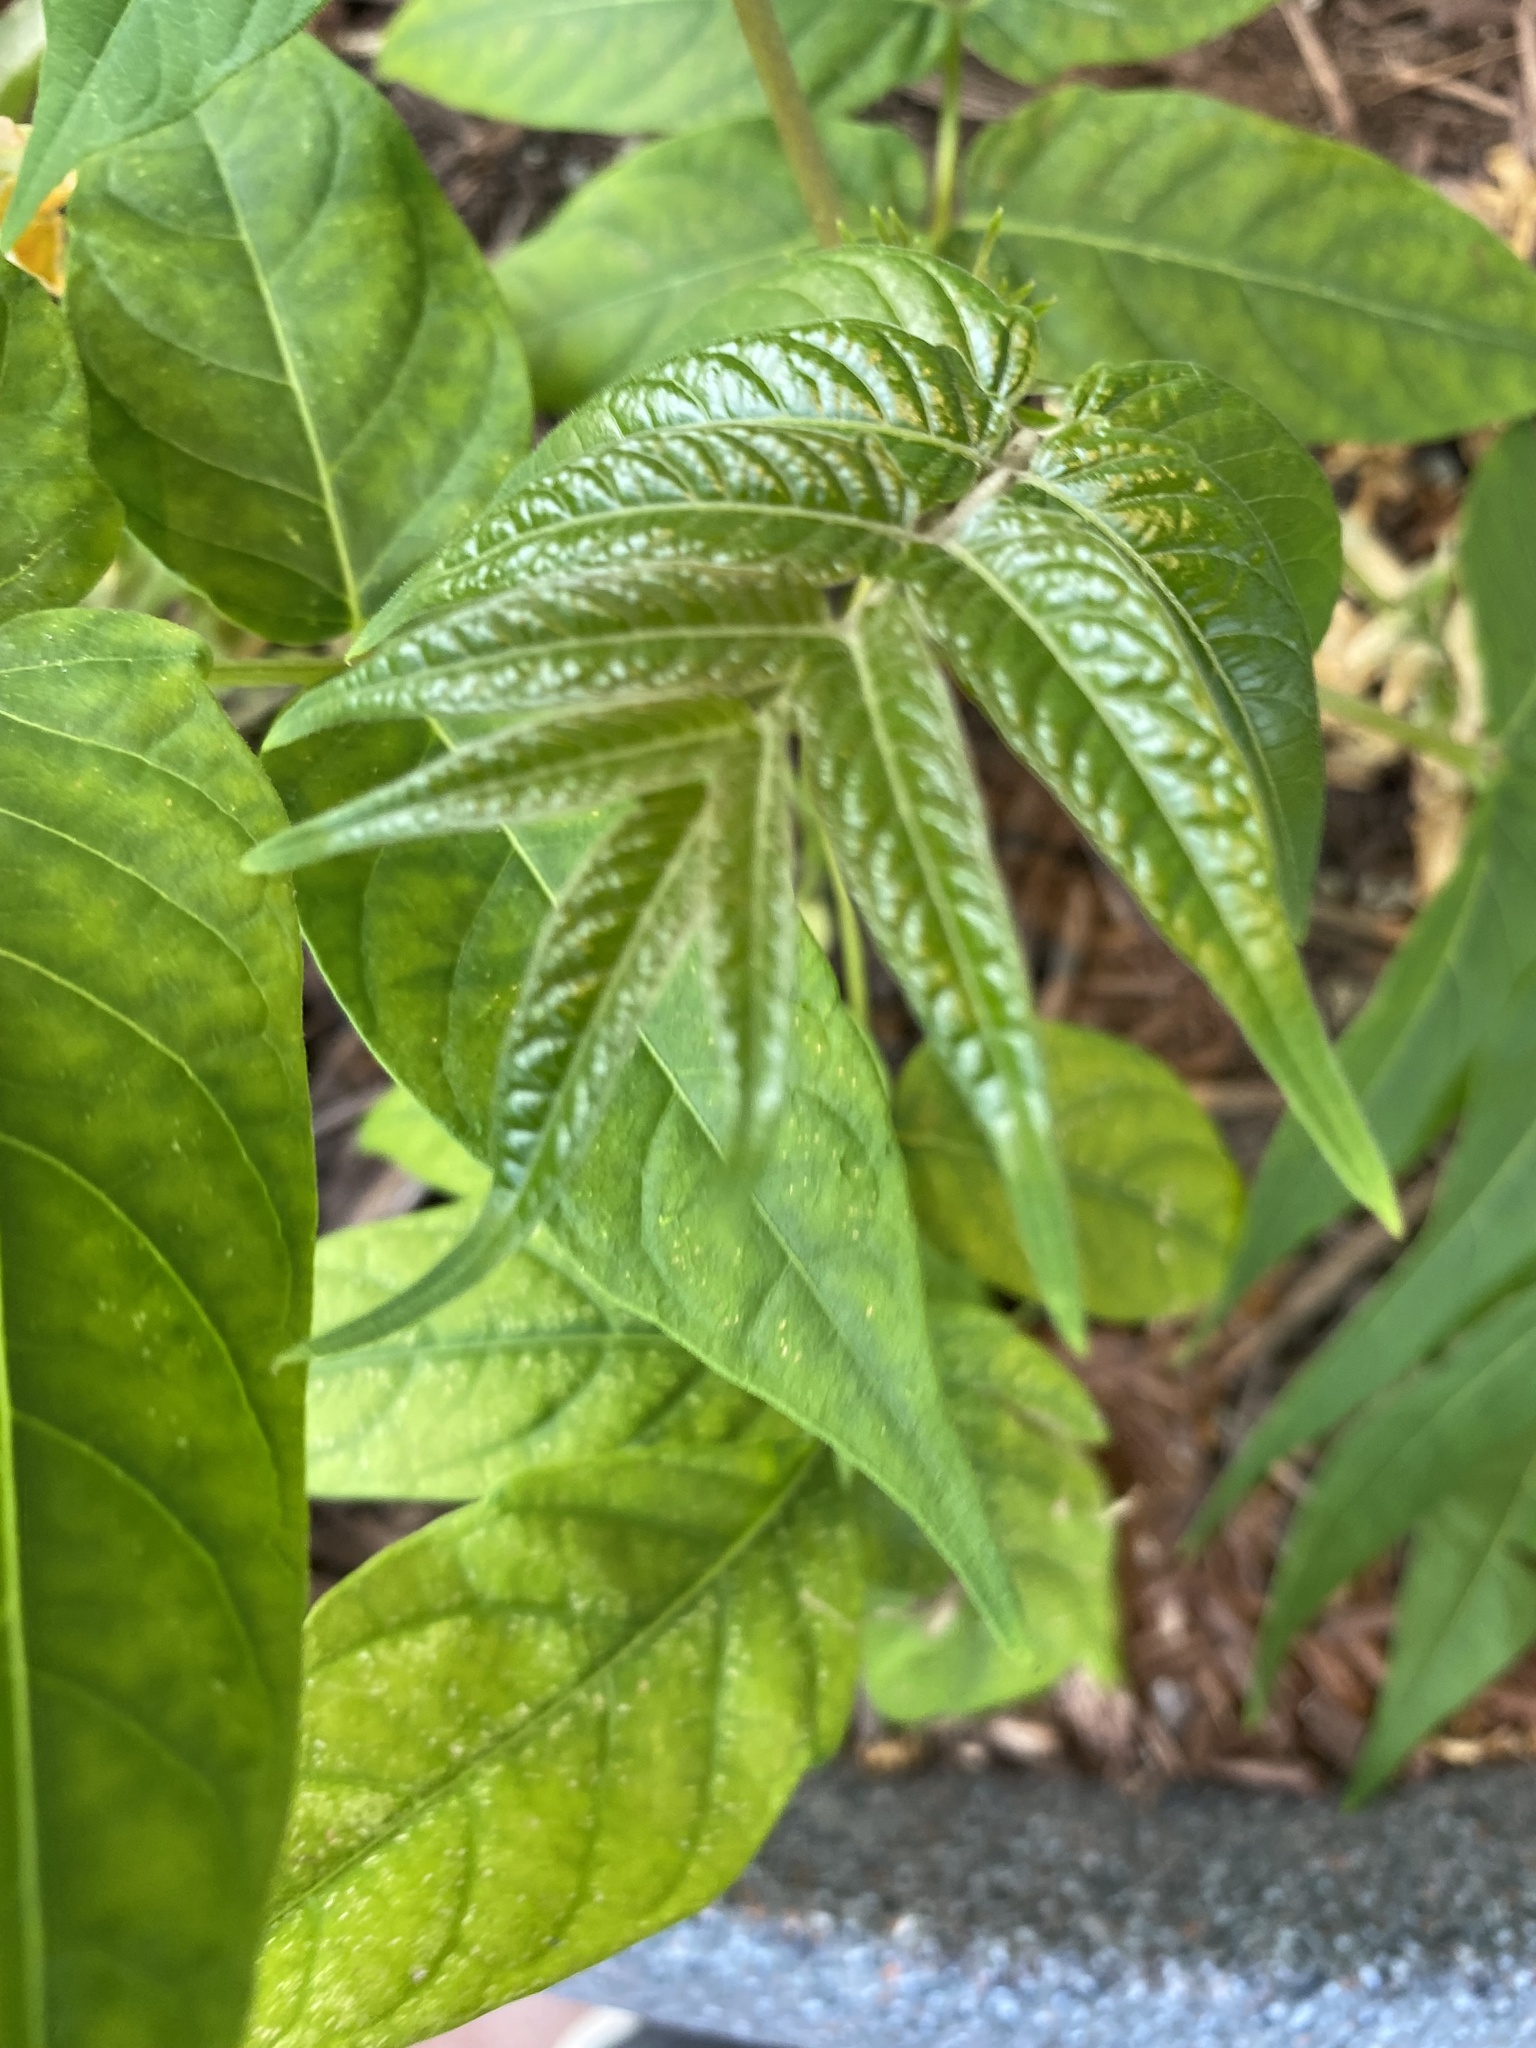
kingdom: Plantae
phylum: Tracheophyta
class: Magnoliopsida
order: Sapindales
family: Simaroubaceae
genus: Ailanthus
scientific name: Ailanthus altissima
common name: Tree-of-heaven
